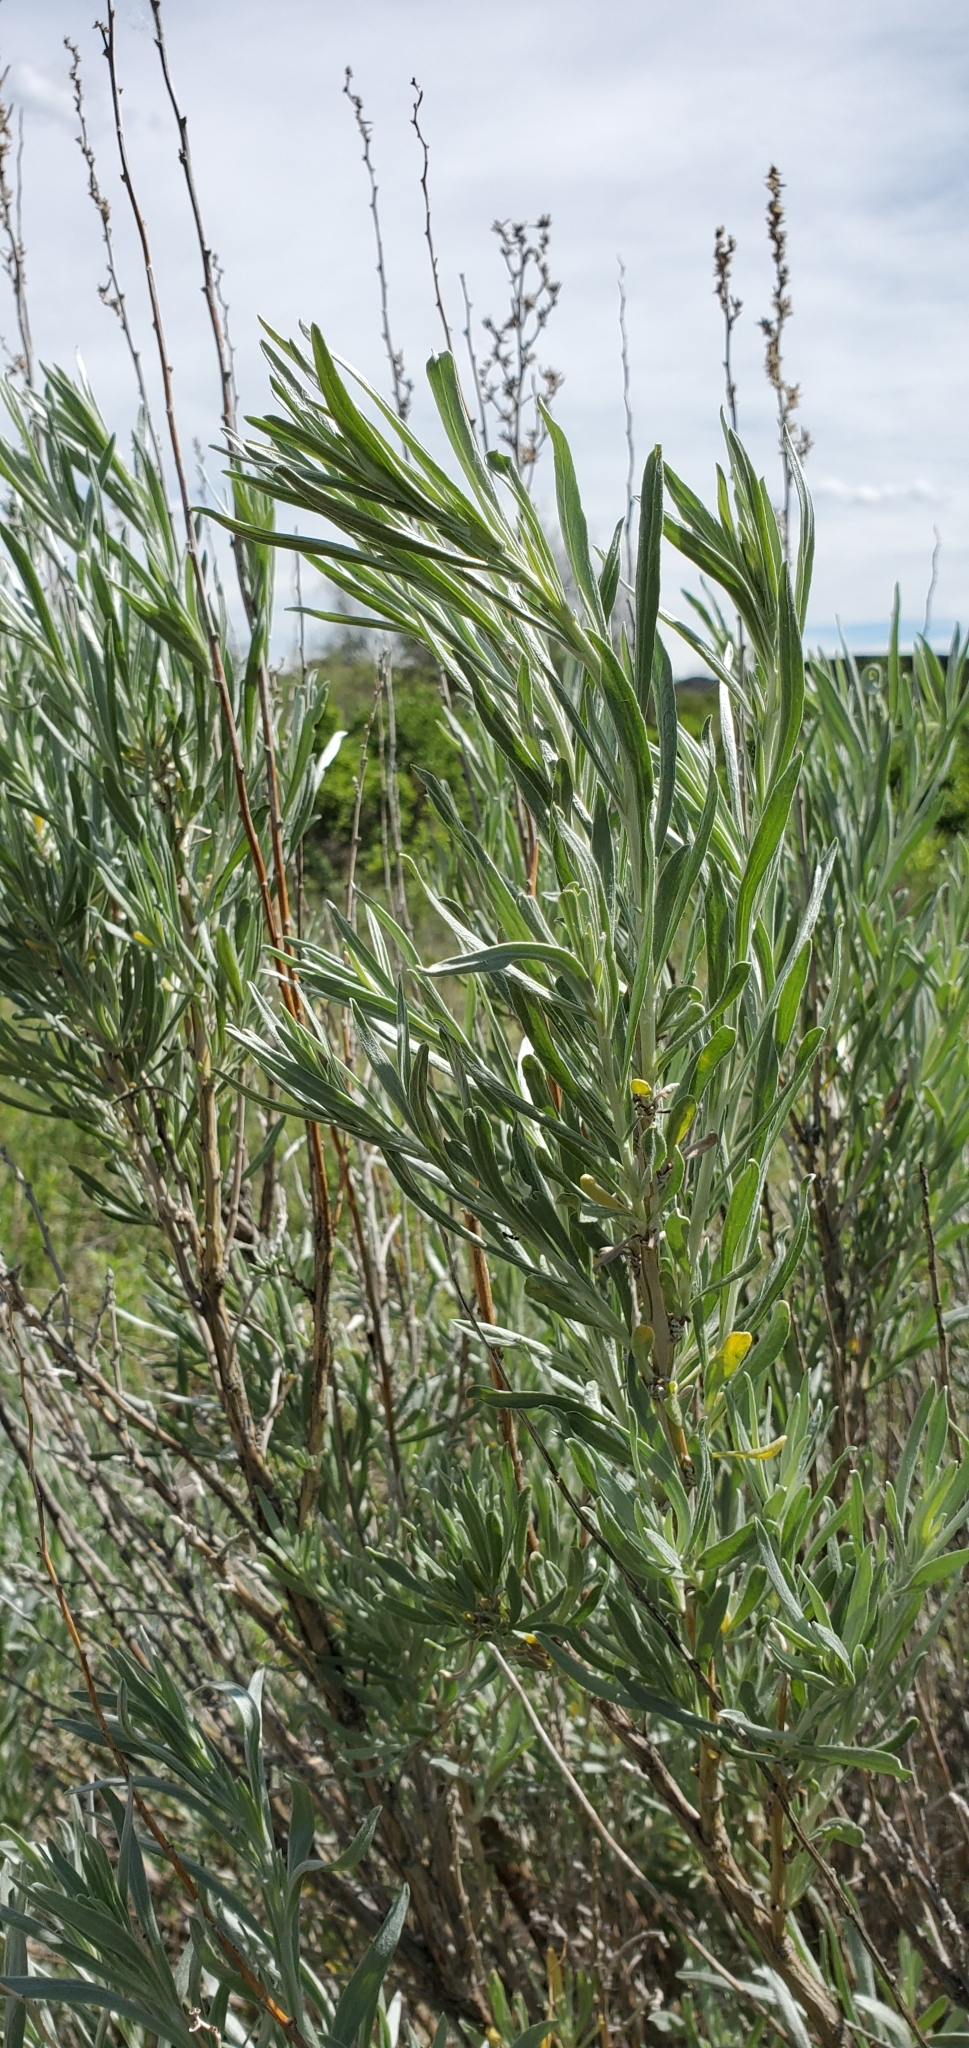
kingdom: Plantae
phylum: Tracheophyta
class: Magnoliopsida
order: Asterales
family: Asteraceae
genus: Artemisia
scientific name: Artemisia cana
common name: Silver sagebrush
